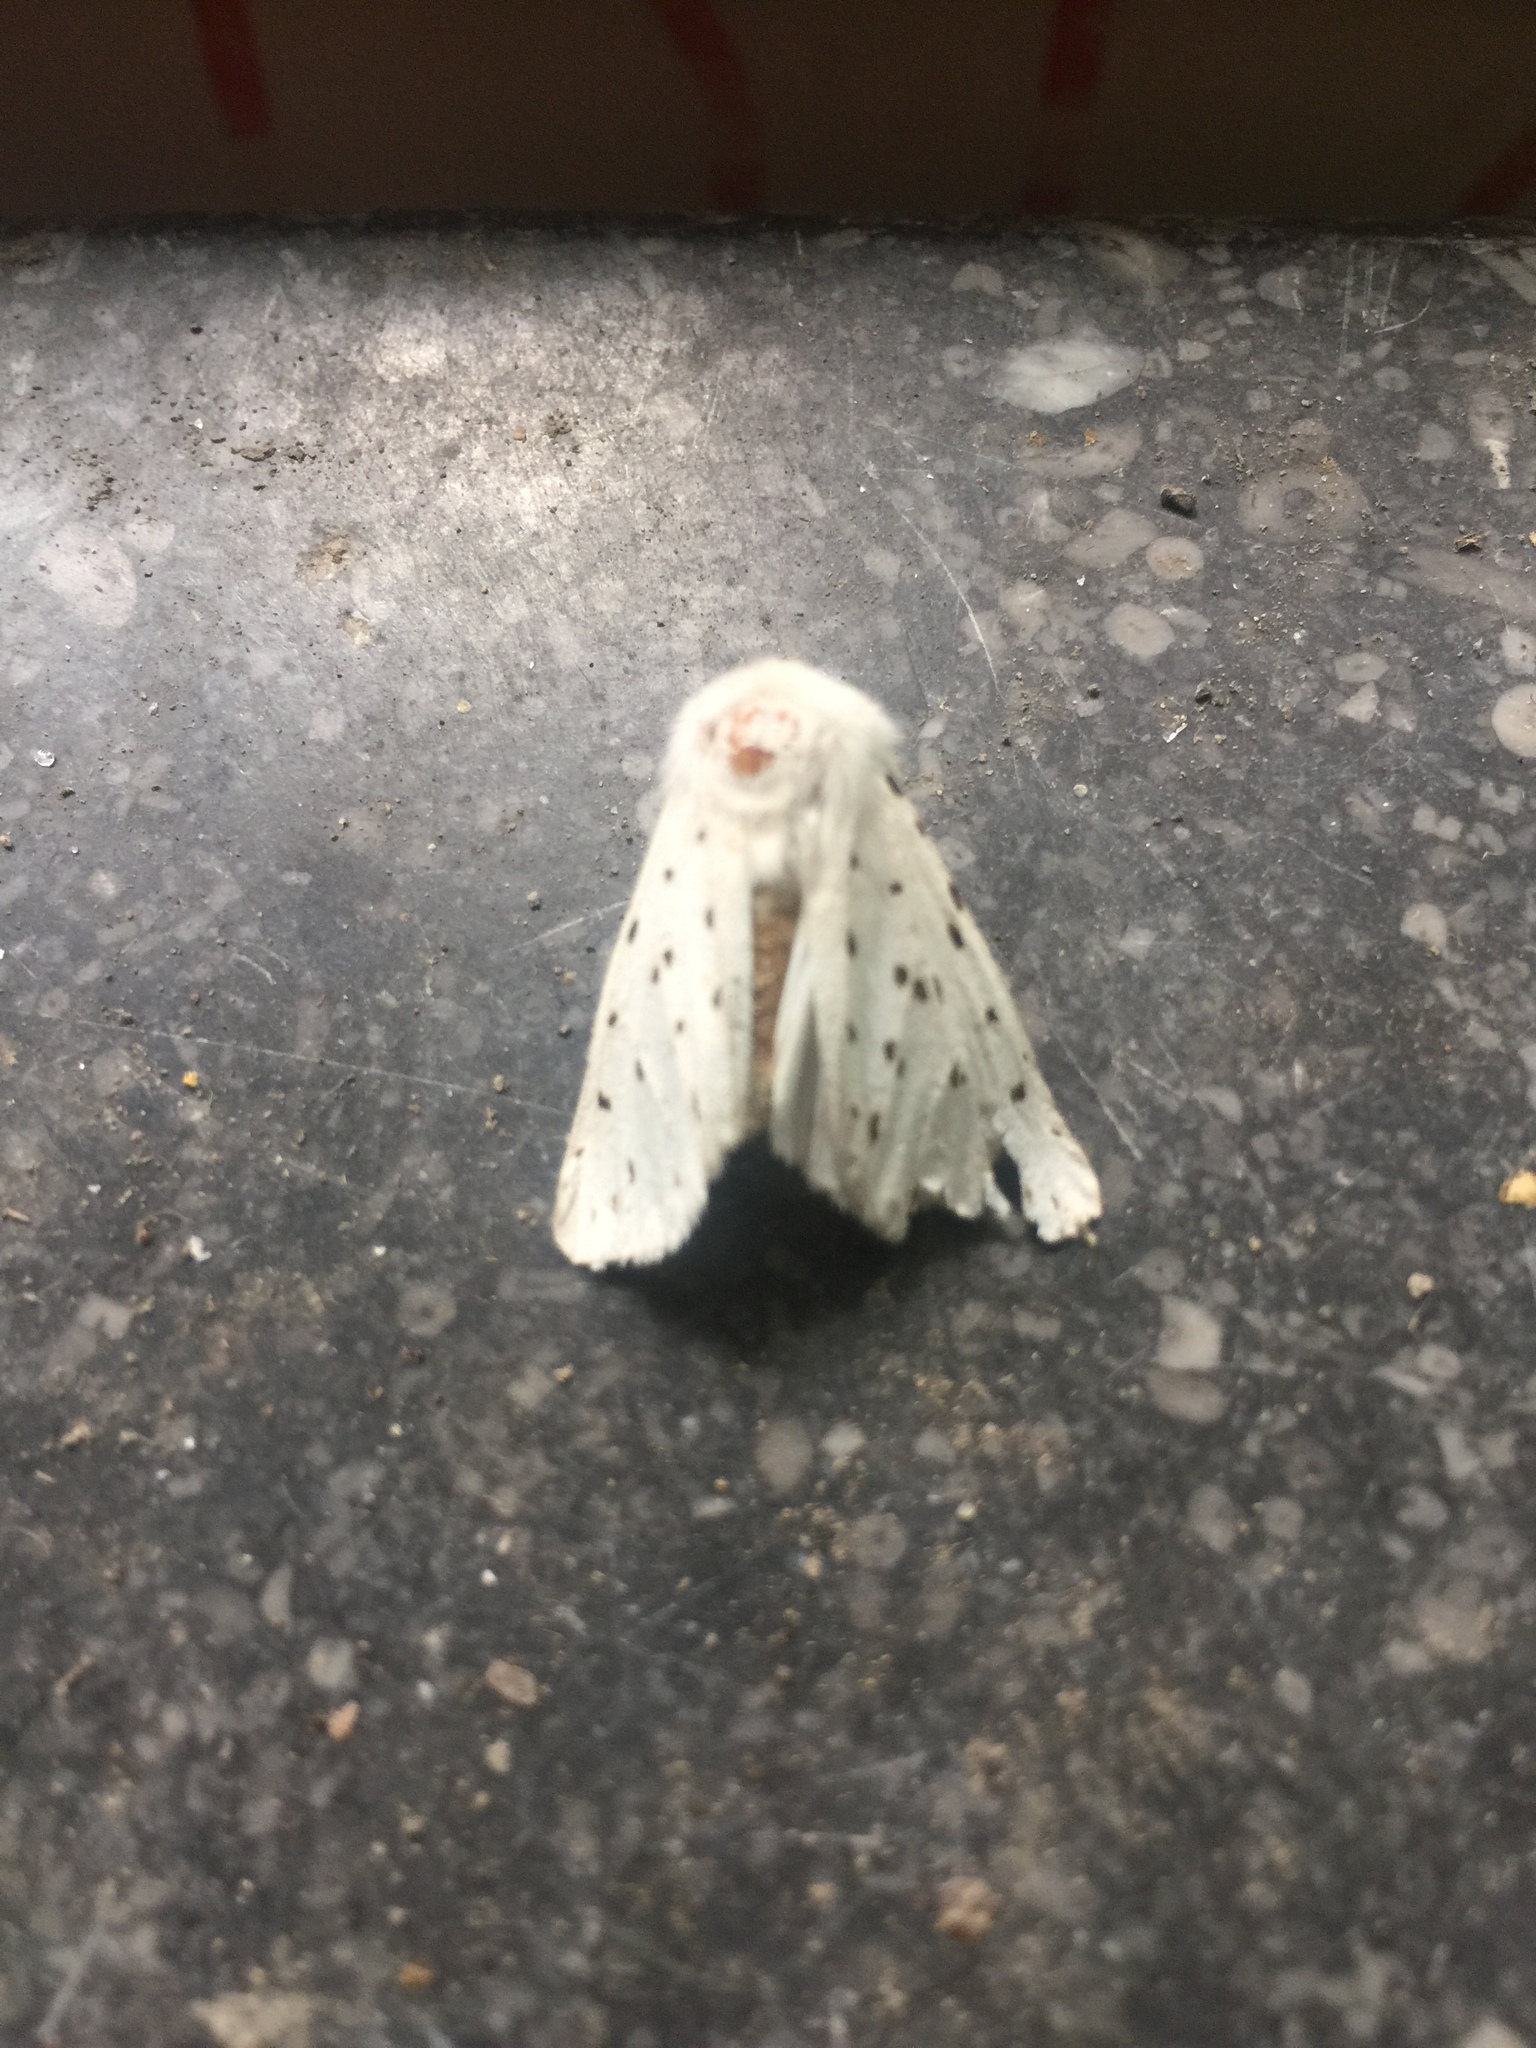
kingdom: Animalia
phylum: Arthropoda
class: Insecta
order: Lepidoptera
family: Erebidae
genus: Spilosoma
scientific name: Spilosoma lubricipeda
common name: White ermine
